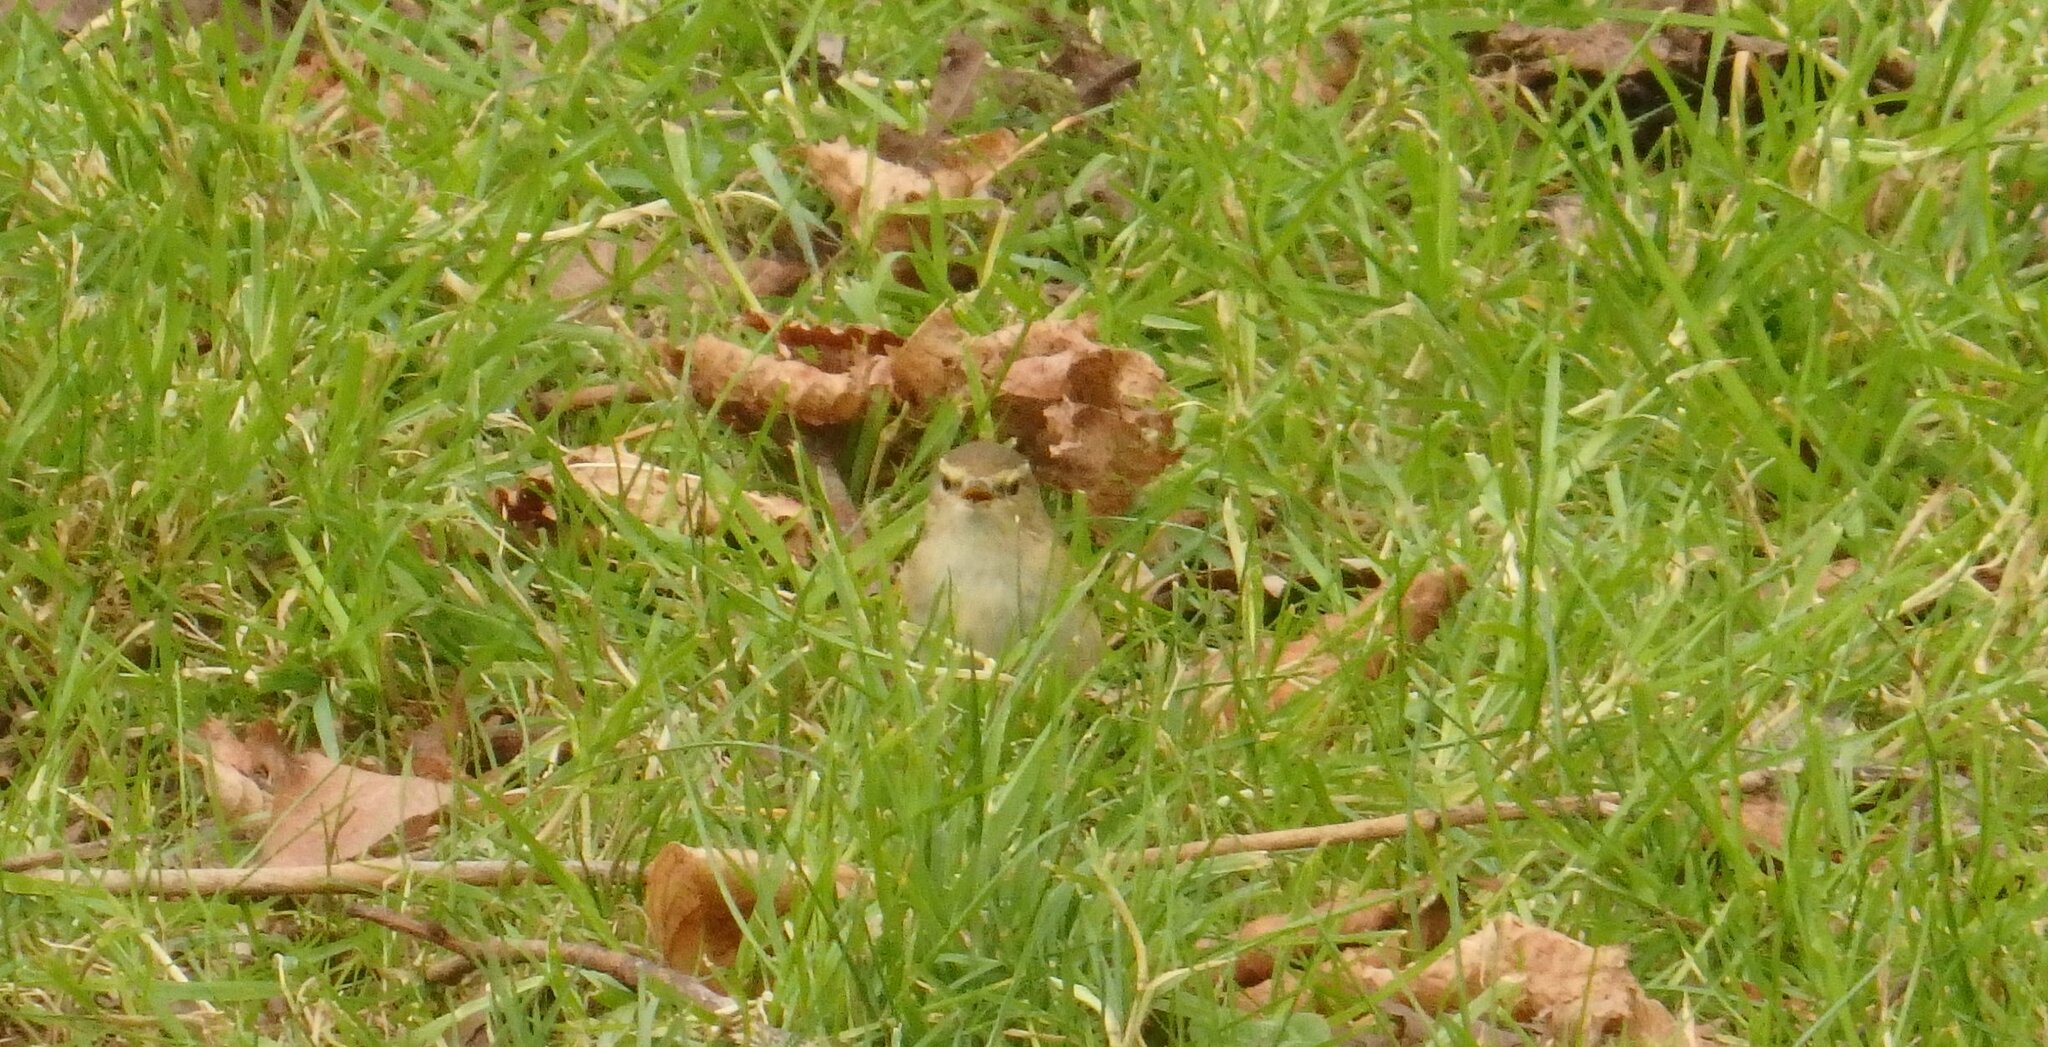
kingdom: Animalia
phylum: Chordata
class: Aves
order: Passeriformes
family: Phylloscopidae
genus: Phylloscopus
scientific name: Phylloscopus collybita
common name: Common chiffchaff
